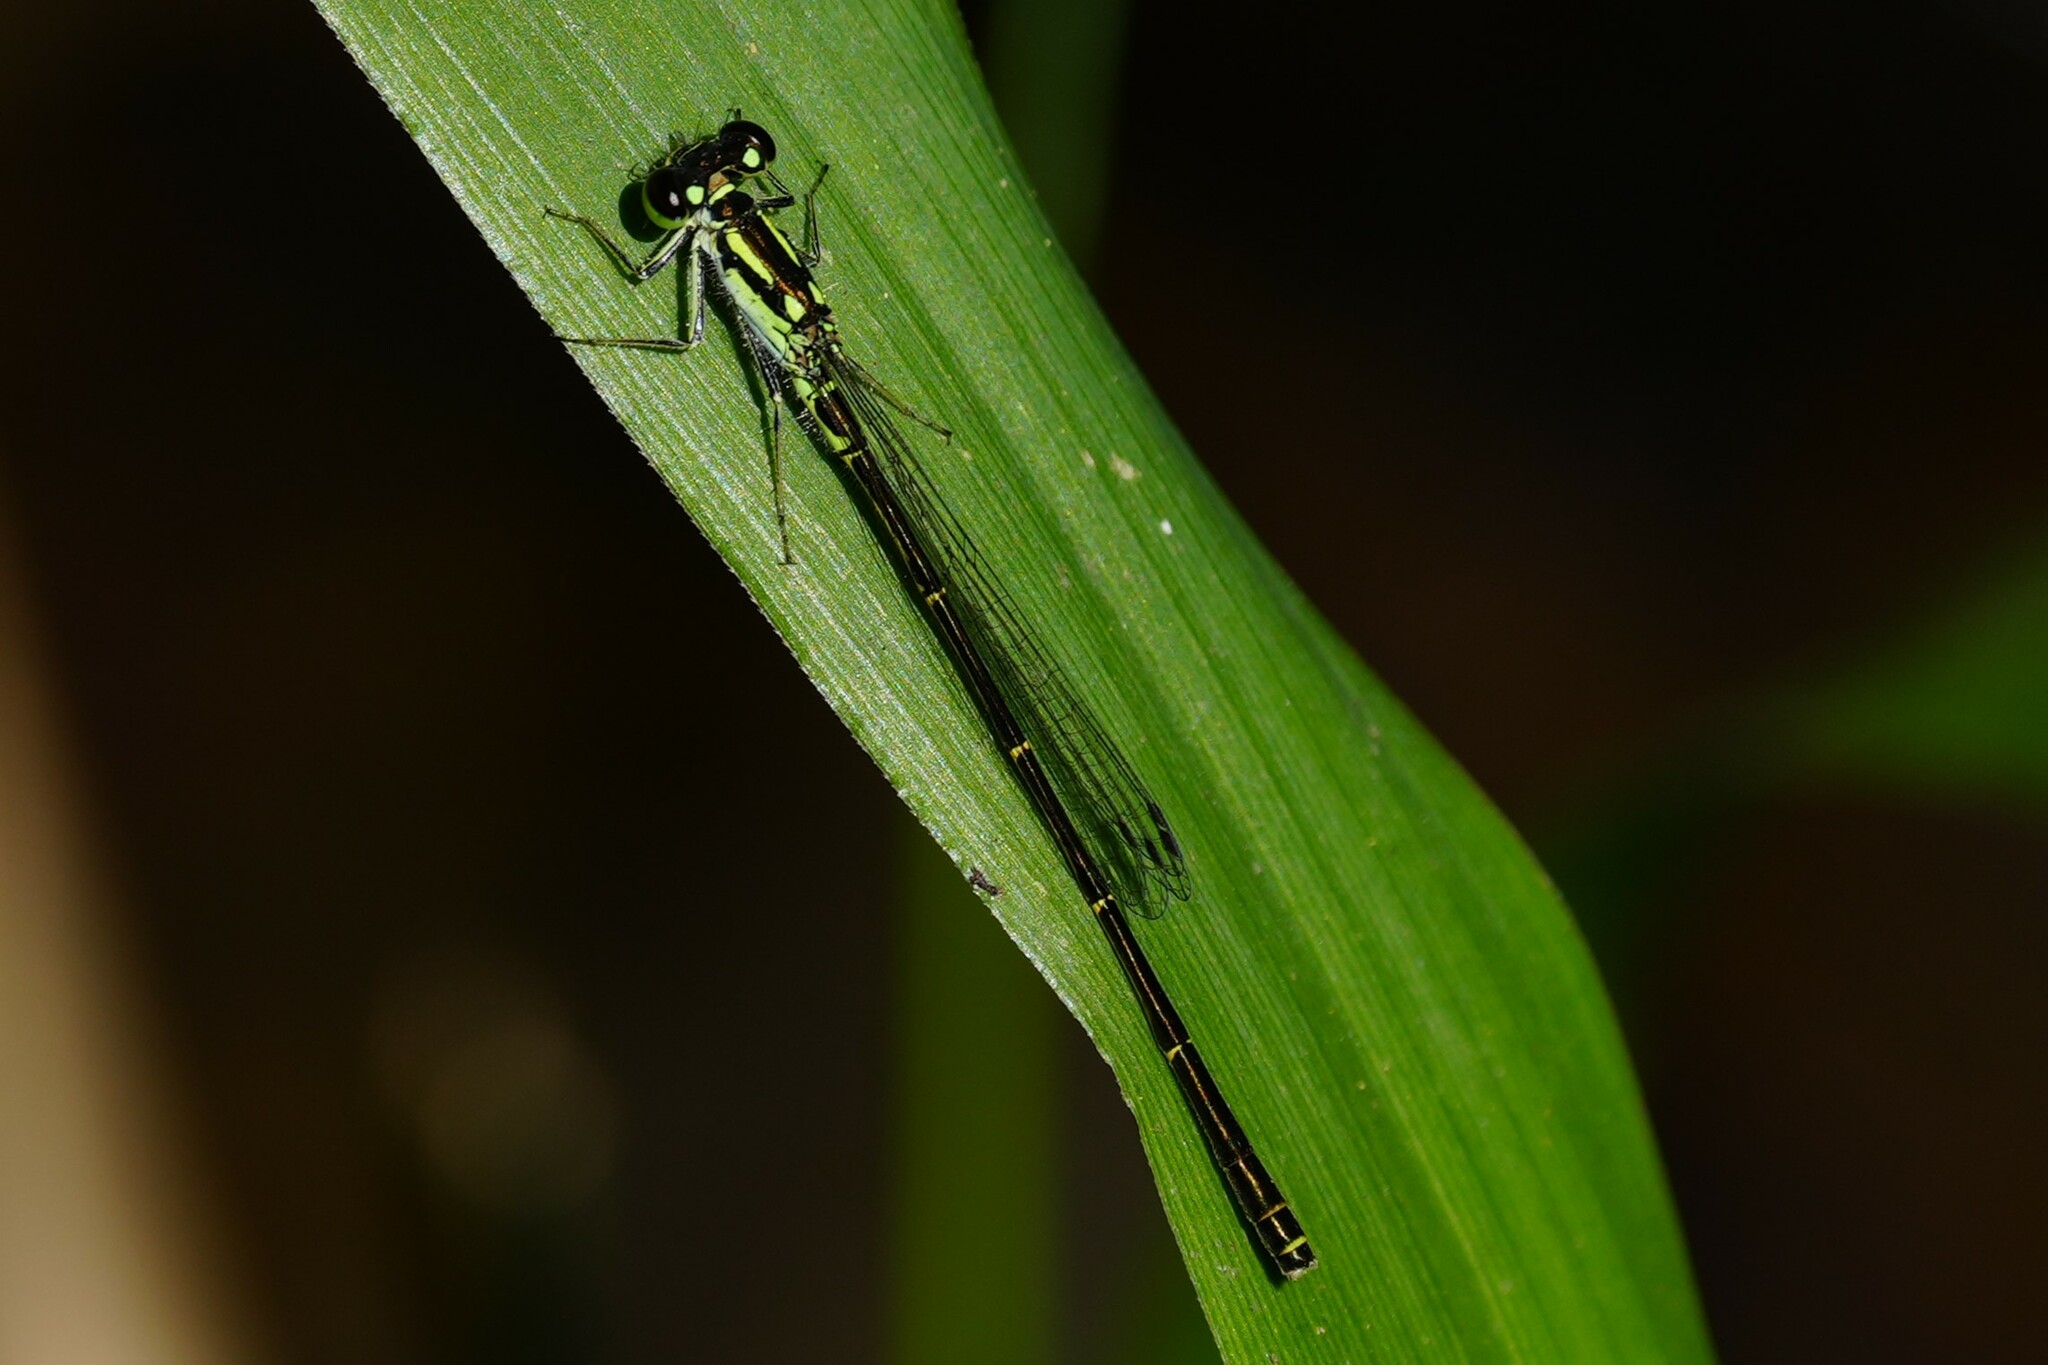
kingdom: Animalia
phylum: Arthropoda
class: Insecta
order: Odonata
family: Coenagrionidae
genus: Ischnura
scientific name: Ischnura posita
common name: Fragile forktail
